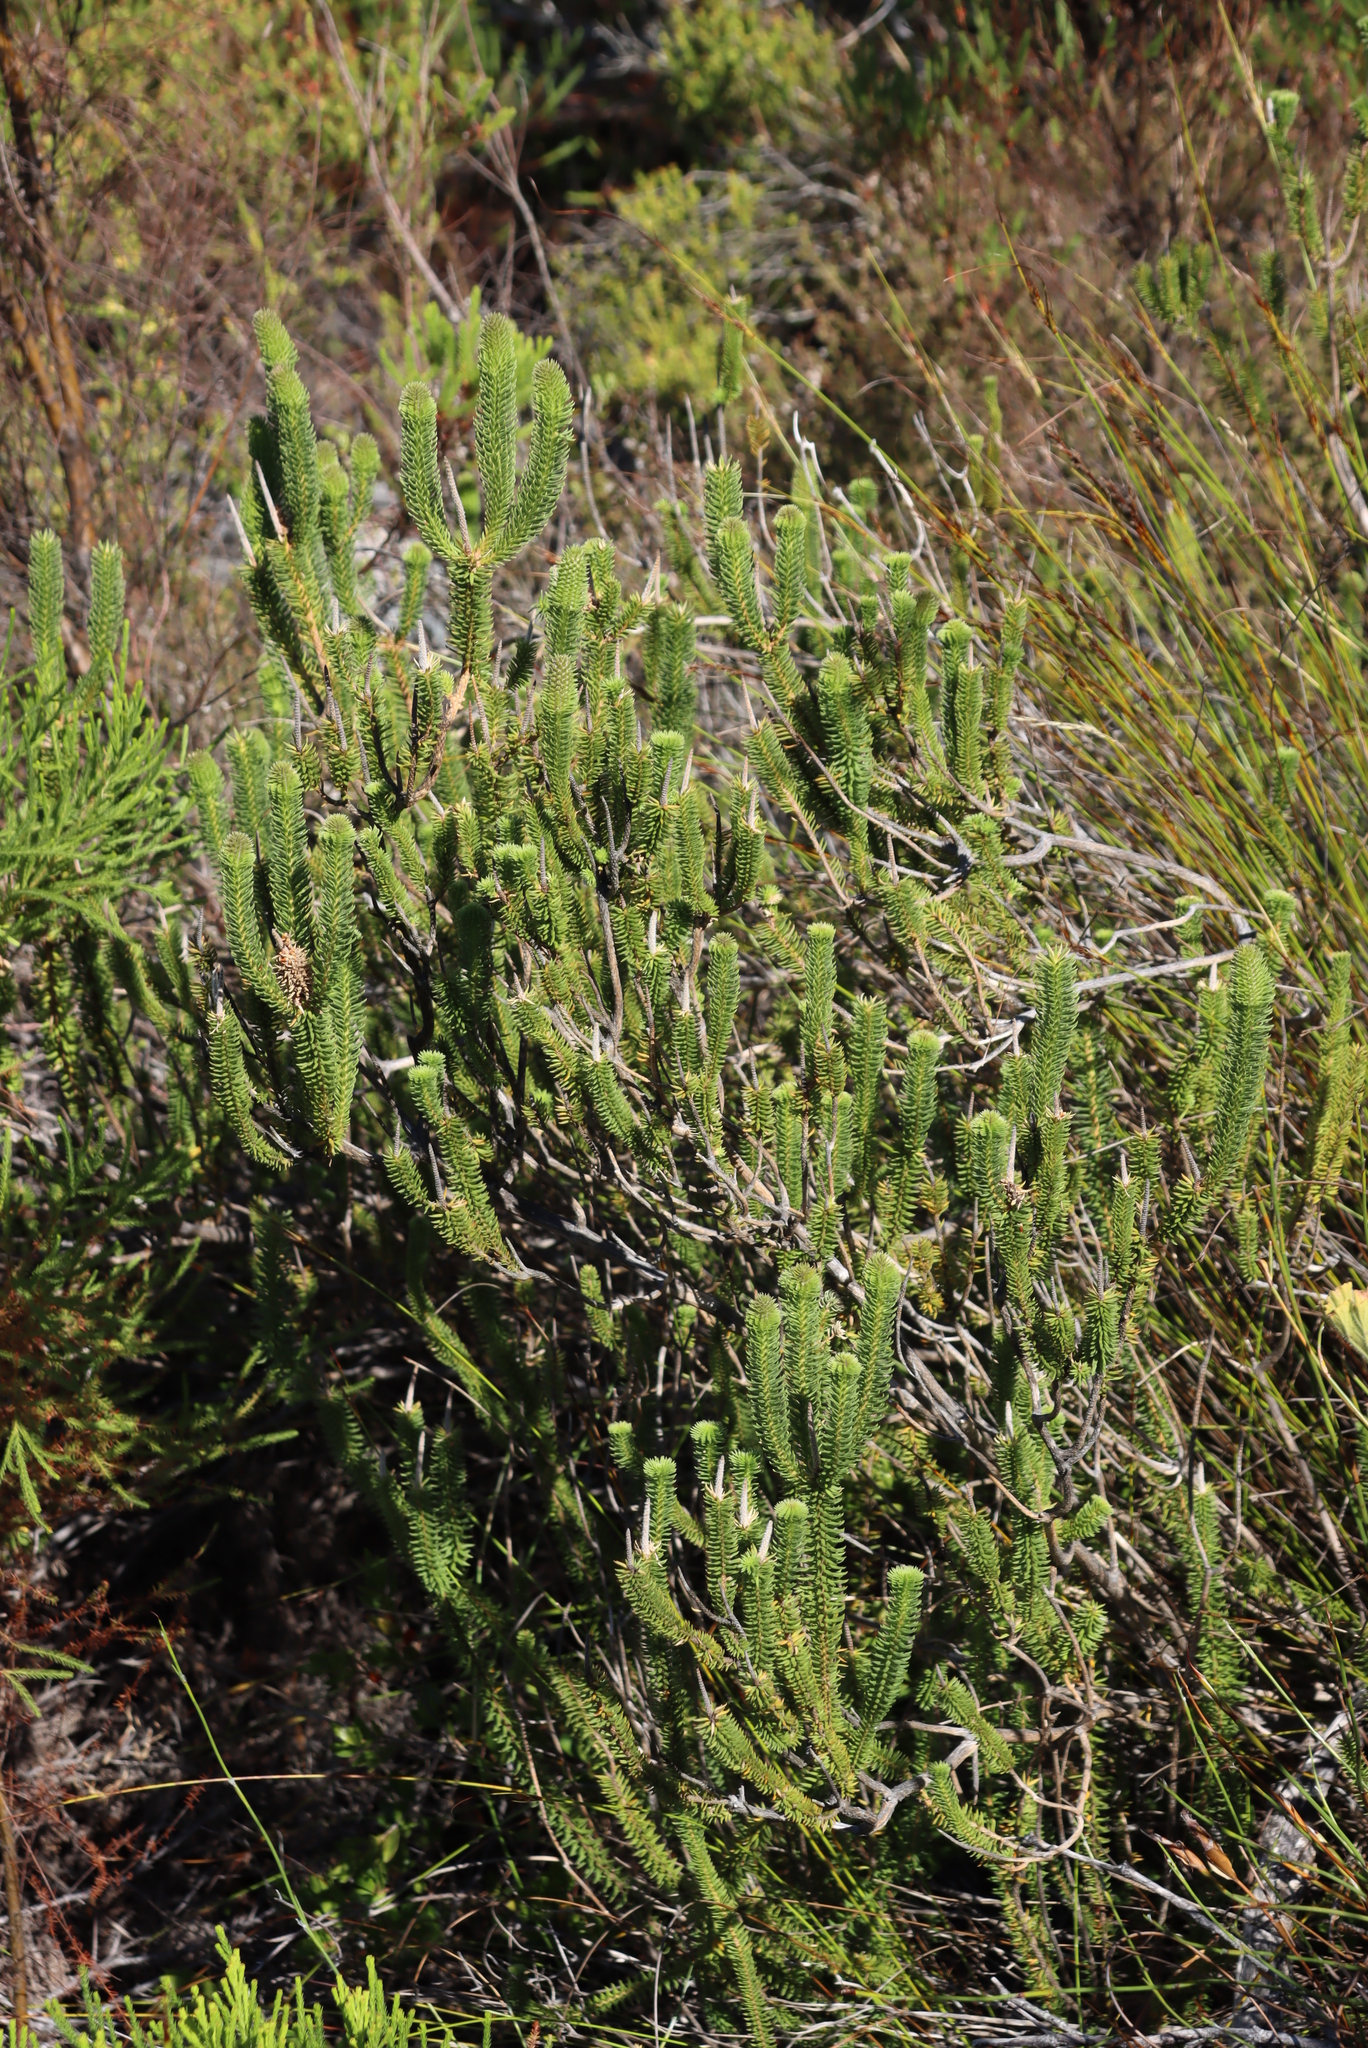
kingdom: Plantae
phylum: Tracheophyta
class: Magnoliopsida
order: Lamiales
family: Stilbaceae
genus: Stilbe
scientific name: Stilbe vestita
